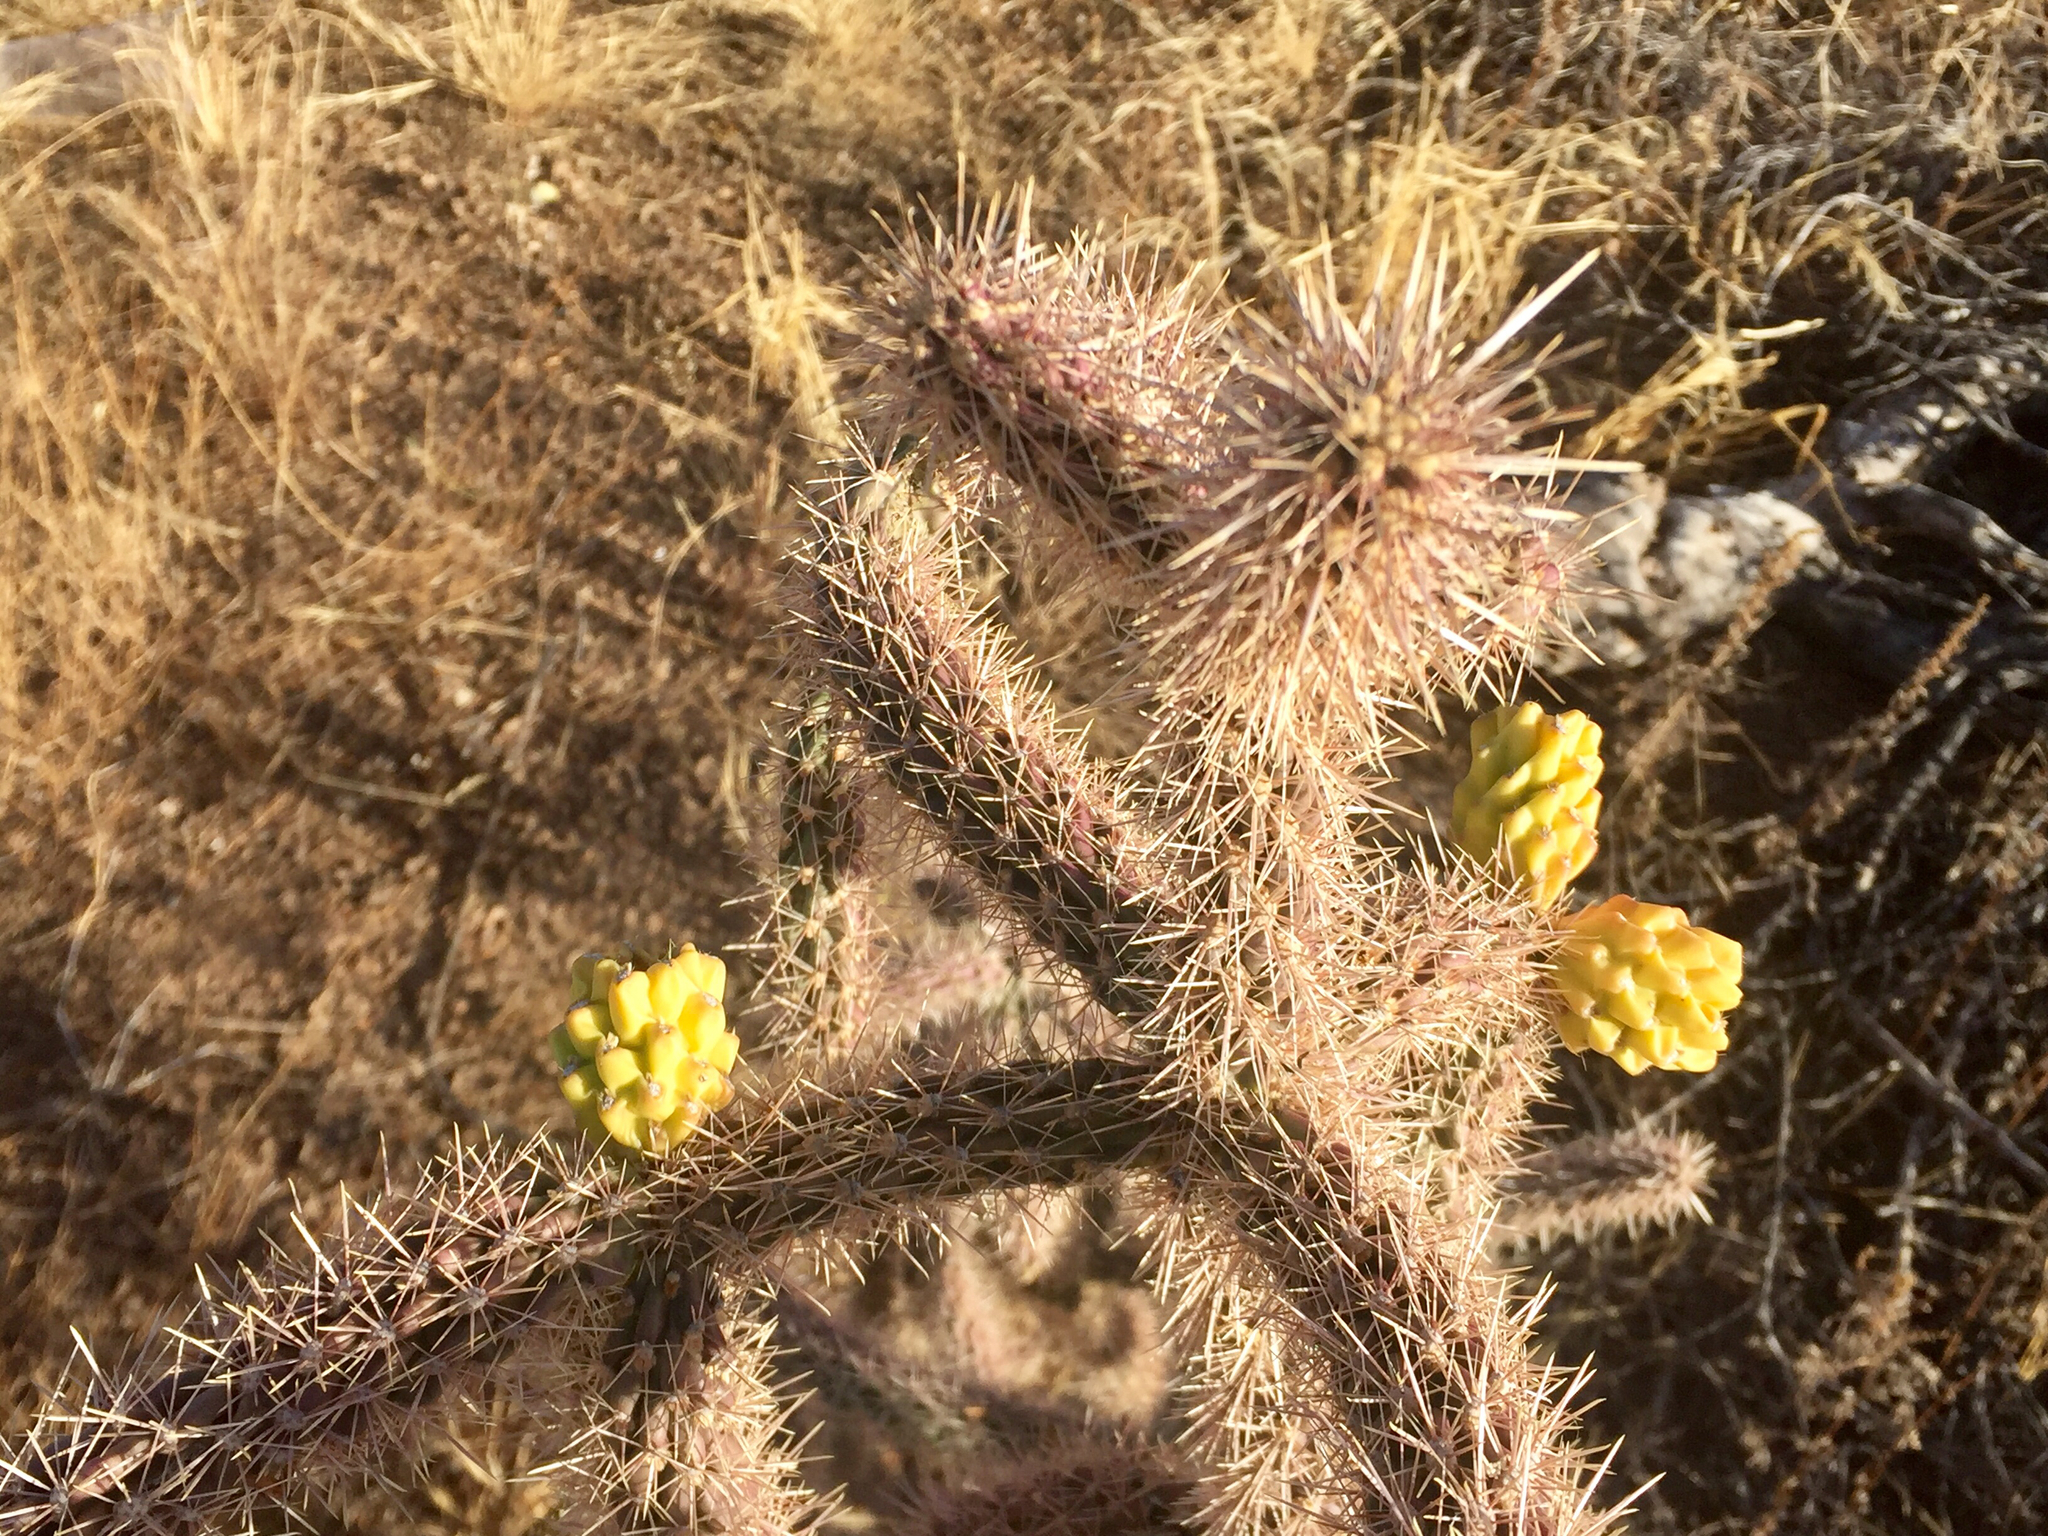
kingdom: Plantae
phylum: Tracheophyta
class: Magnoliopsida
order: Caryophyllales
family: Cactaceae
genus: Cylindropuntia
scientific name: Cylindropuntia imbricata
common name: Candelabrum cactus
